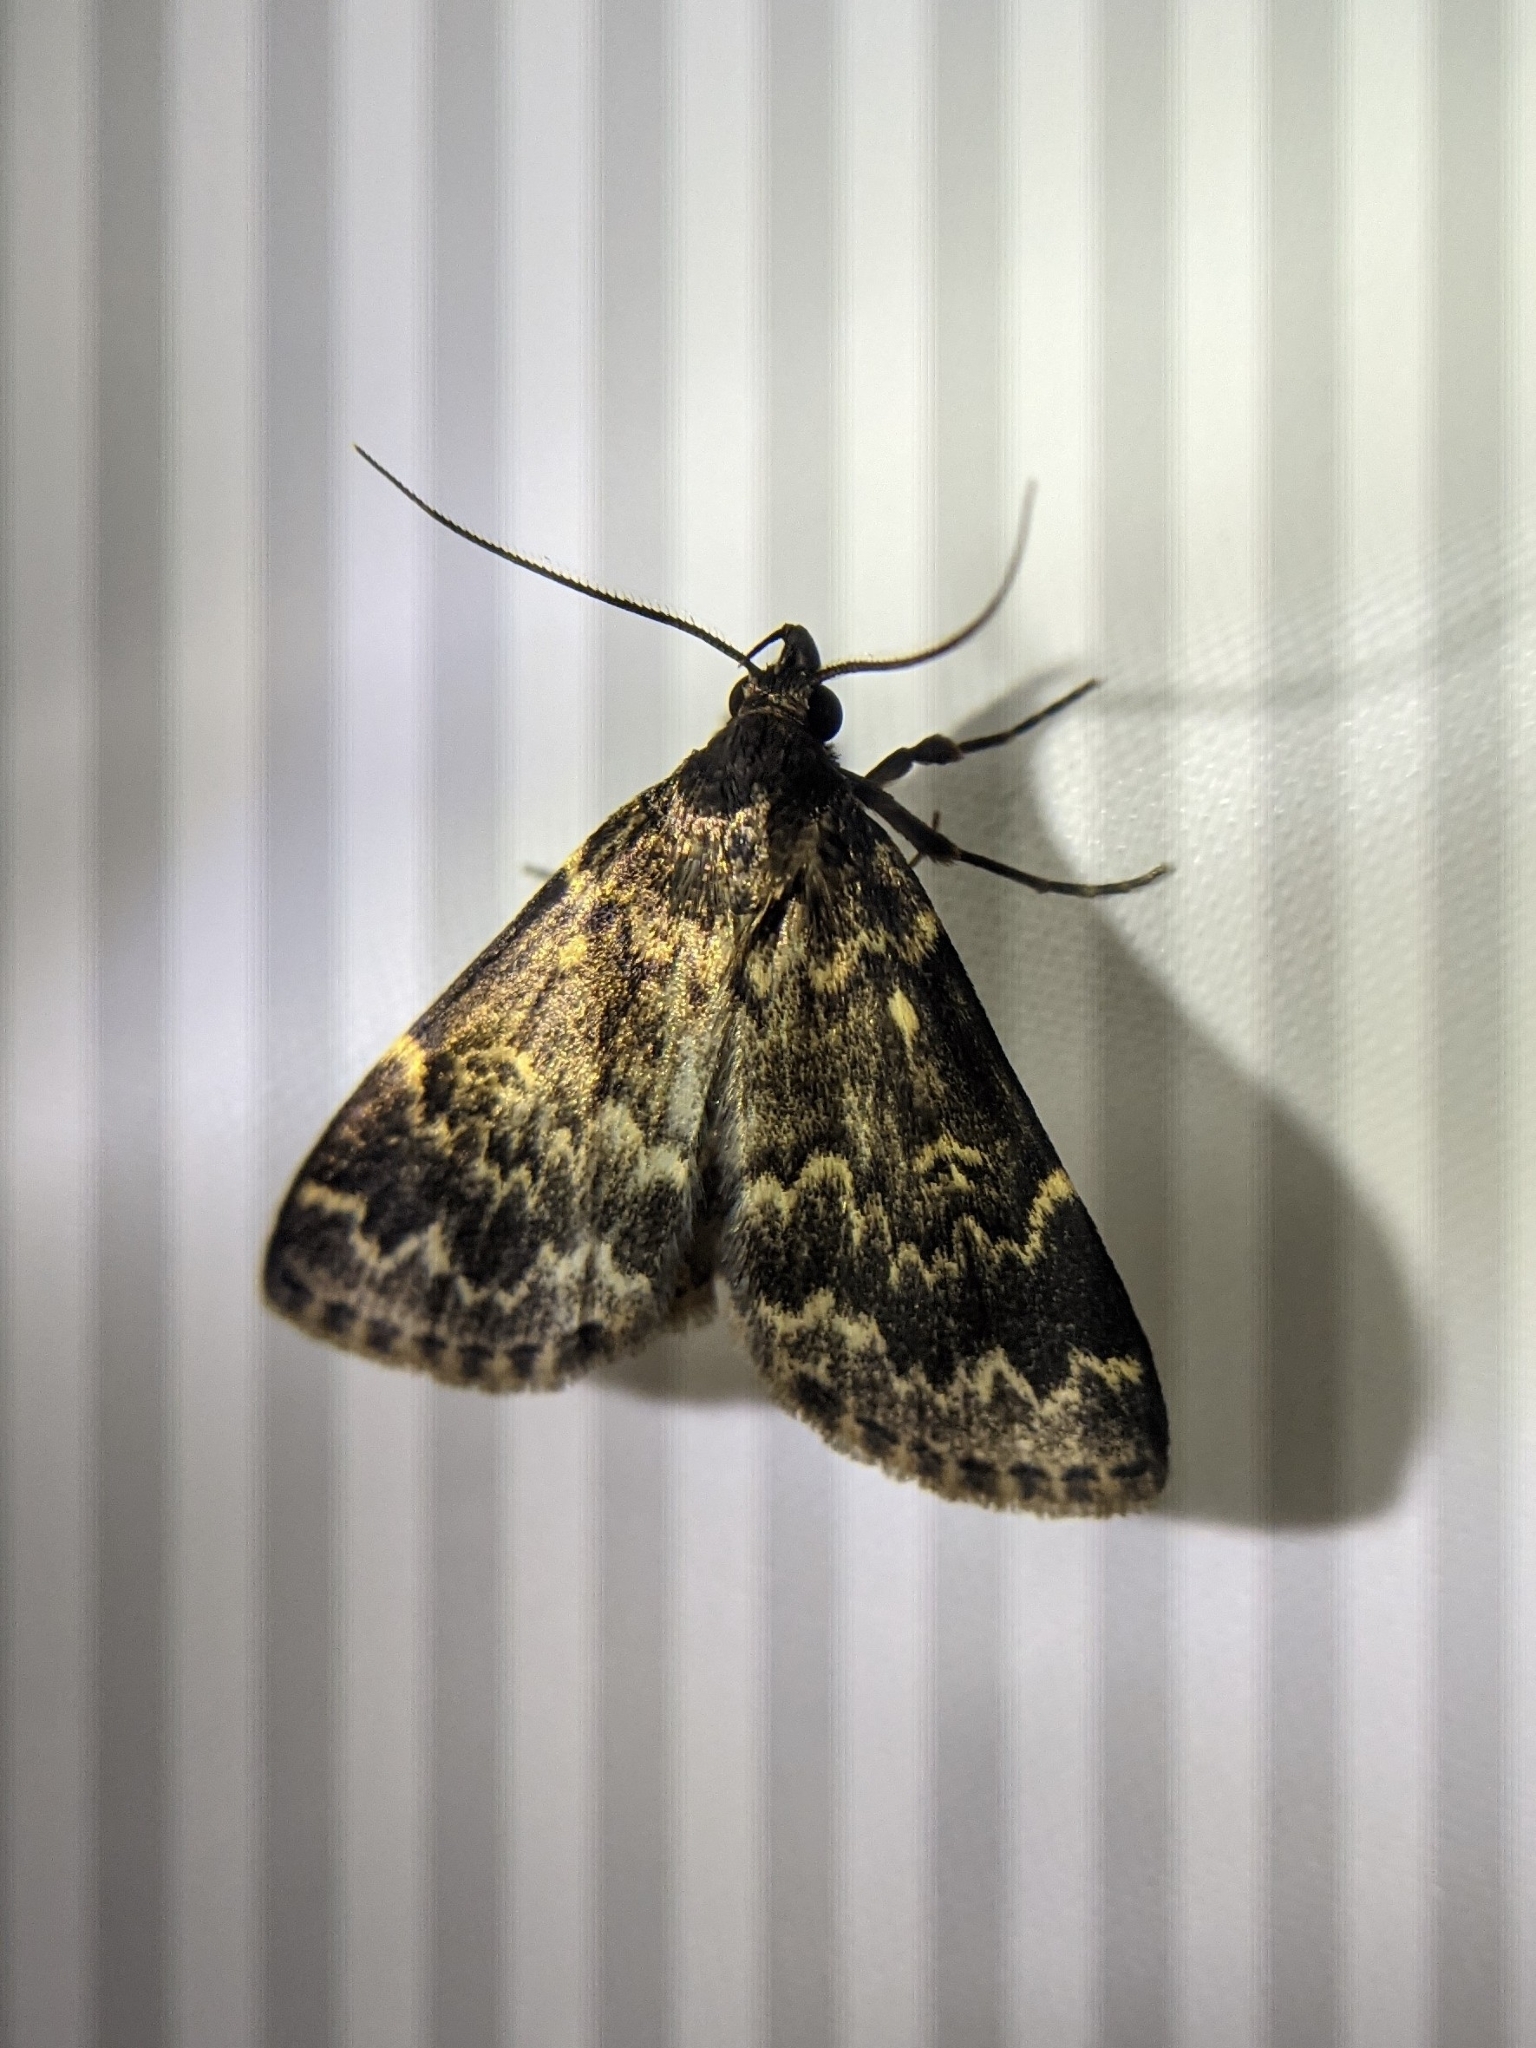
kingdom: Animalia
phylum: Arthropoda
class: Insecta
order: Lepidoptera
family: Erebidae
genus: Idia
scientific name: Idia lubricalis
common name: Twin-striped tabby
